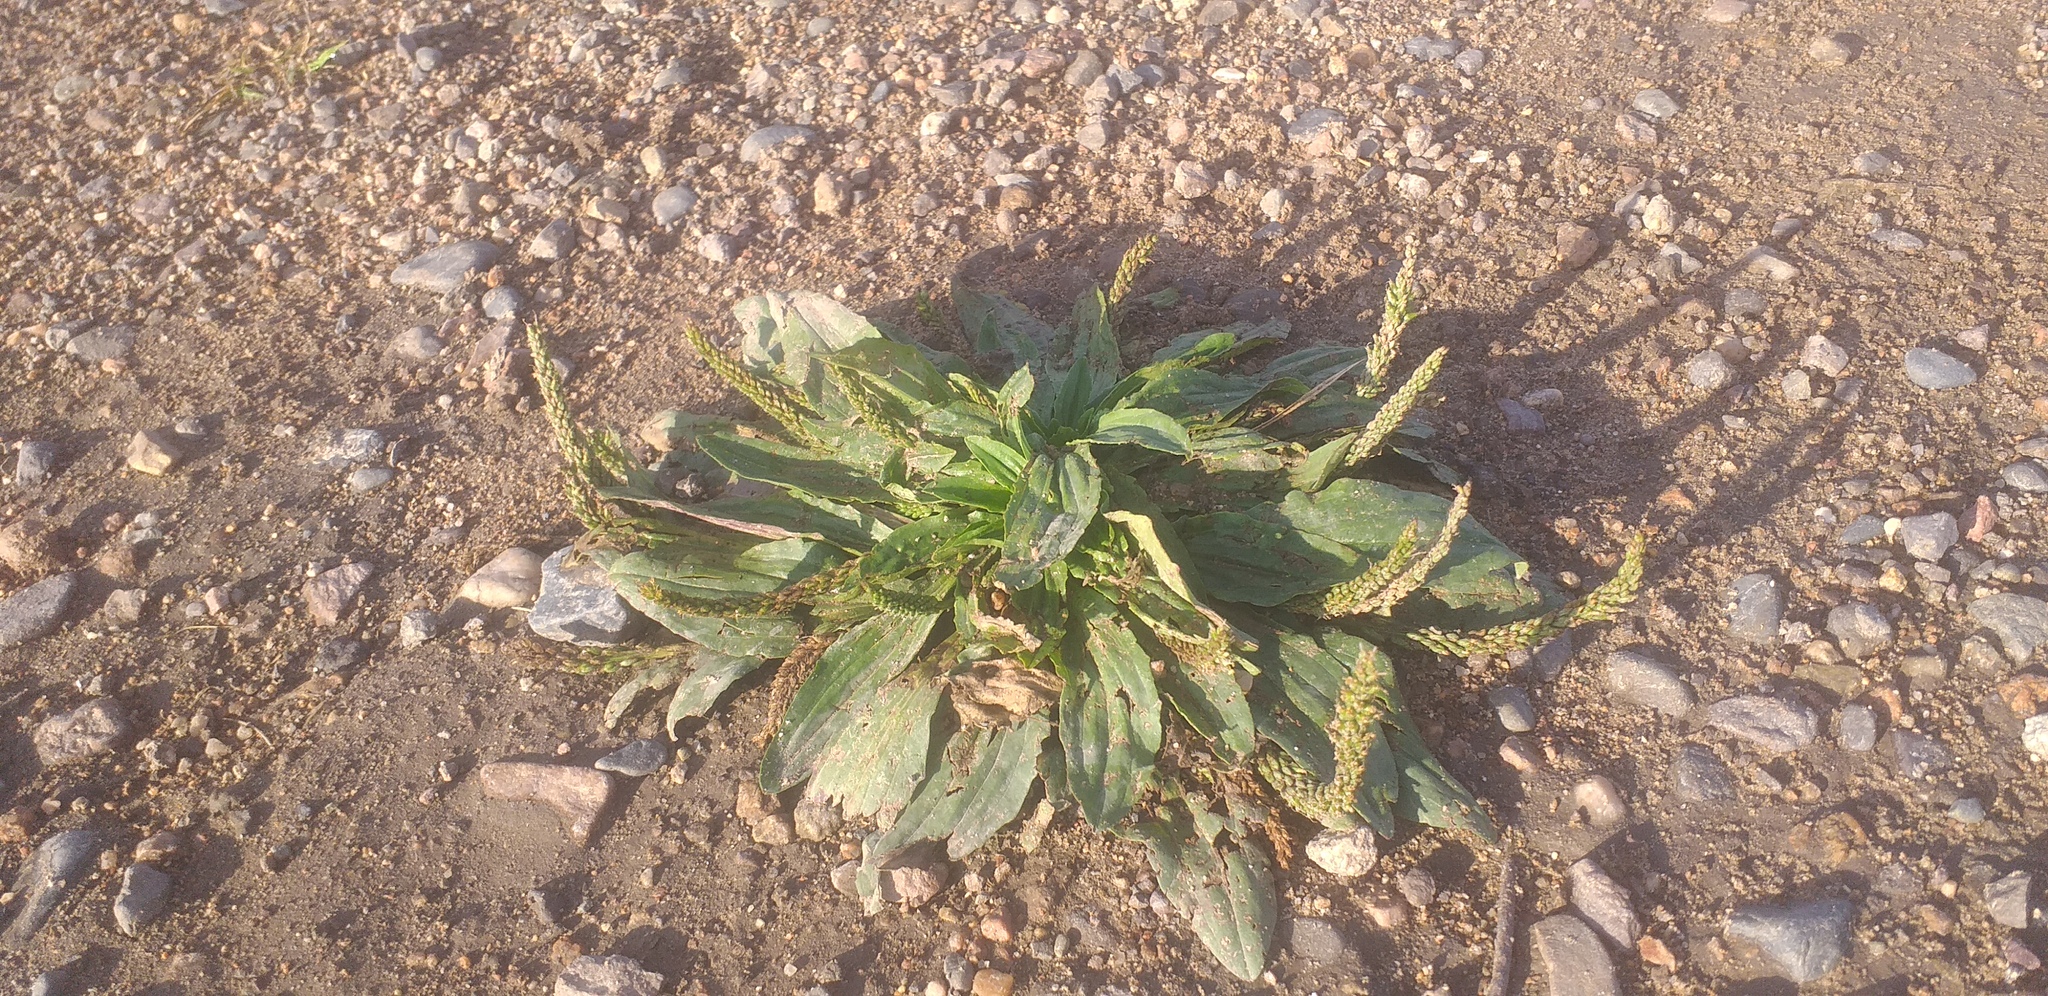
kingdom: Plantae
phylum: Tracheophyta
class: Magnoliopsida
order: Lamiales
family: Plantaginaceae
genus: Plantago
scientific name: Plantago depressa
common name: Depressed plantain
